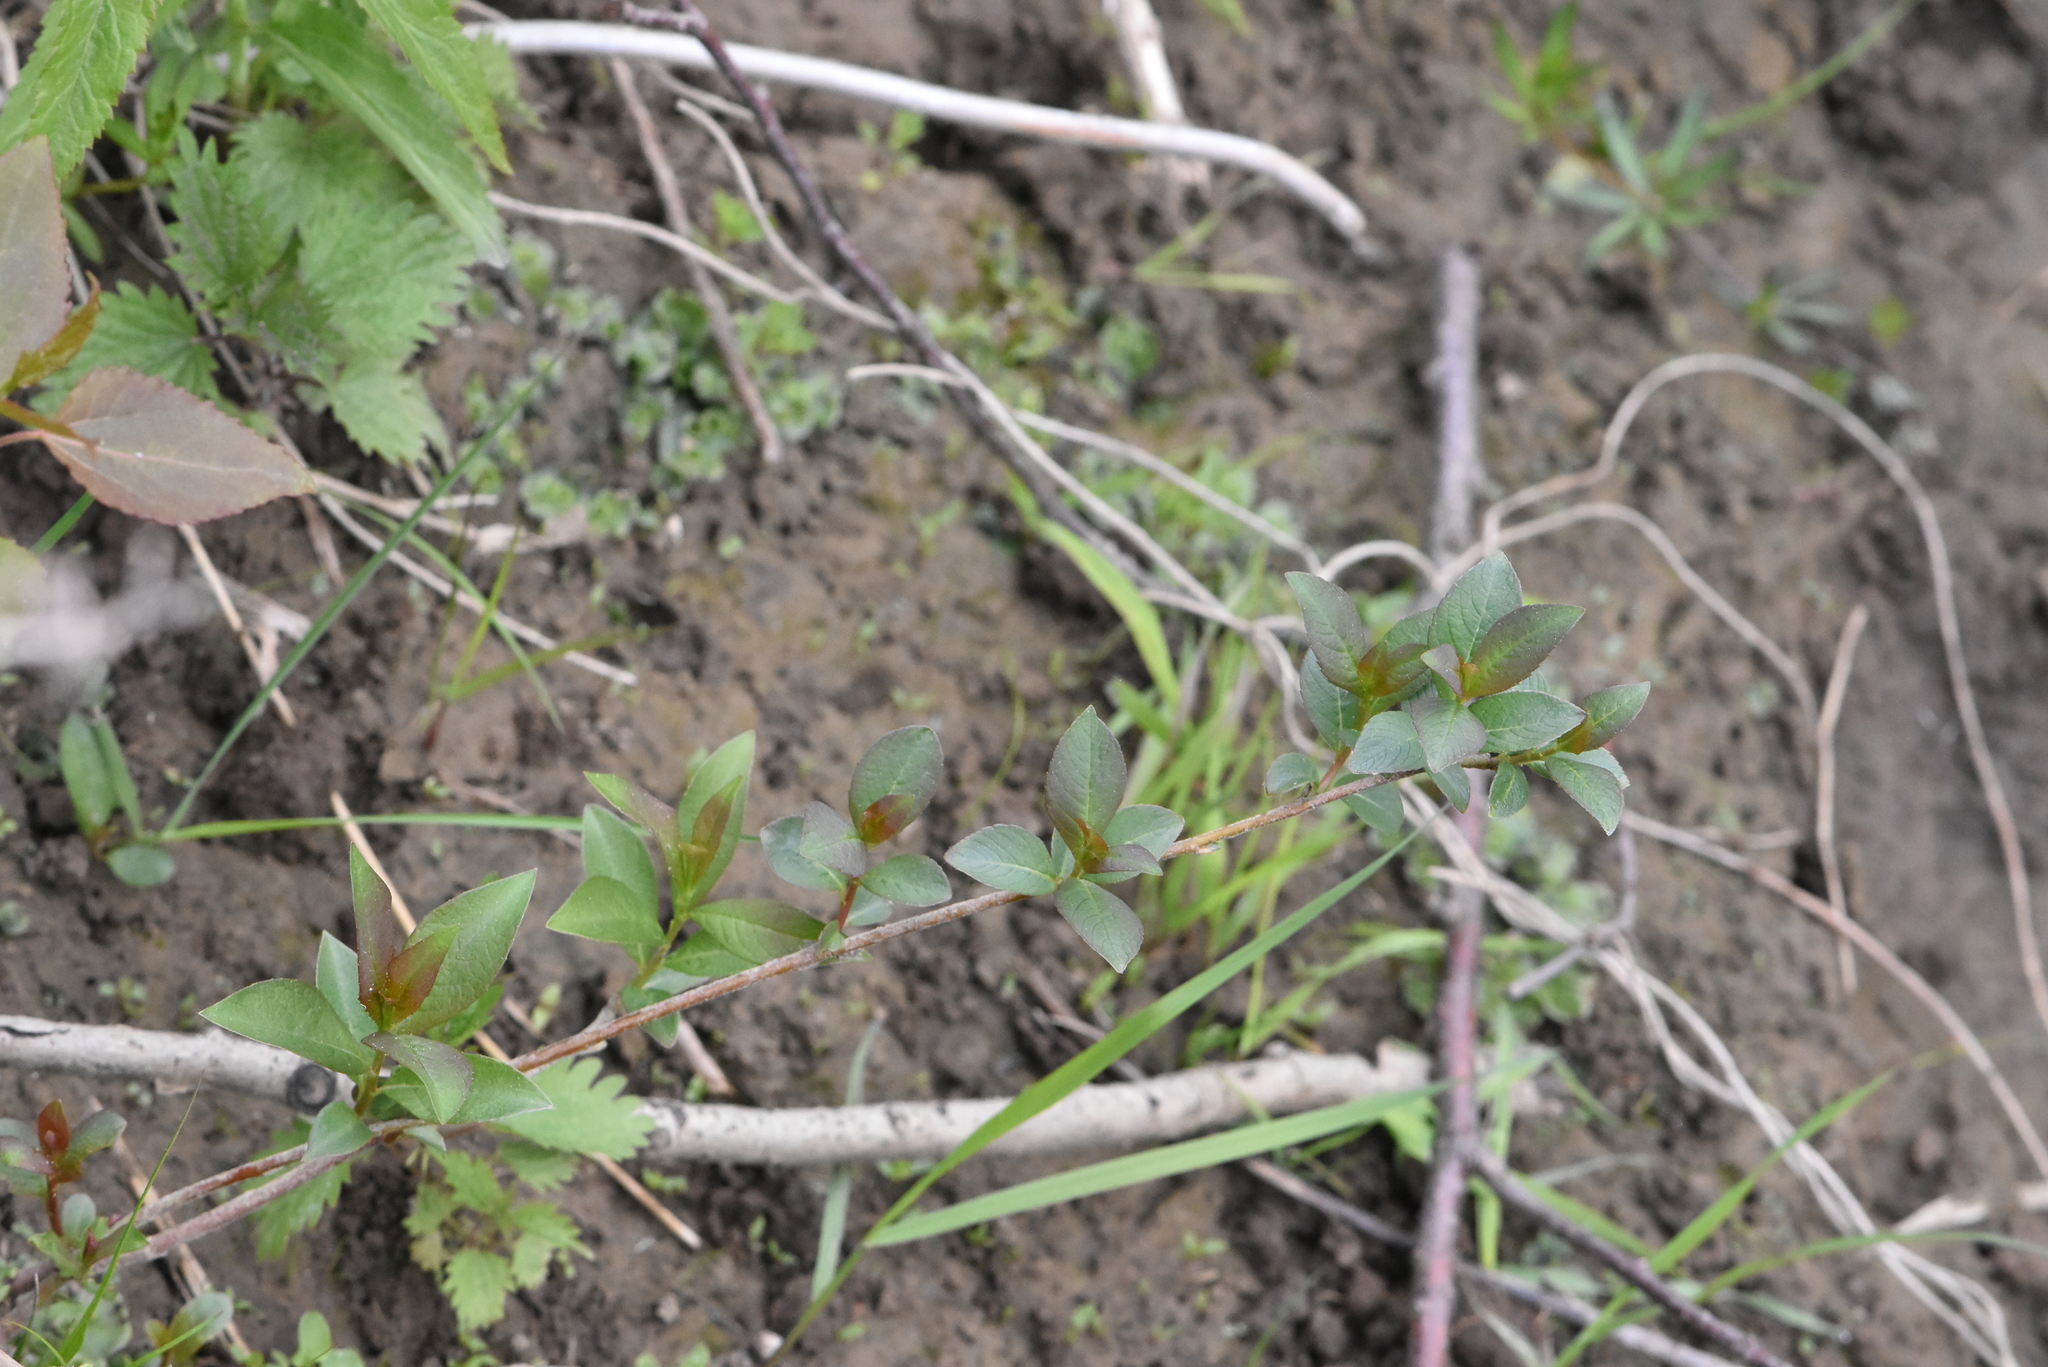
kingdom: Plantae
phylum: Tracheophyta
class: Magnoliopsida
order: Rosales
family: Rosaceae
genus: Sorbaronia
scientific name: Sorbaronia arsenii
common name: Arsène's mountain-ash
